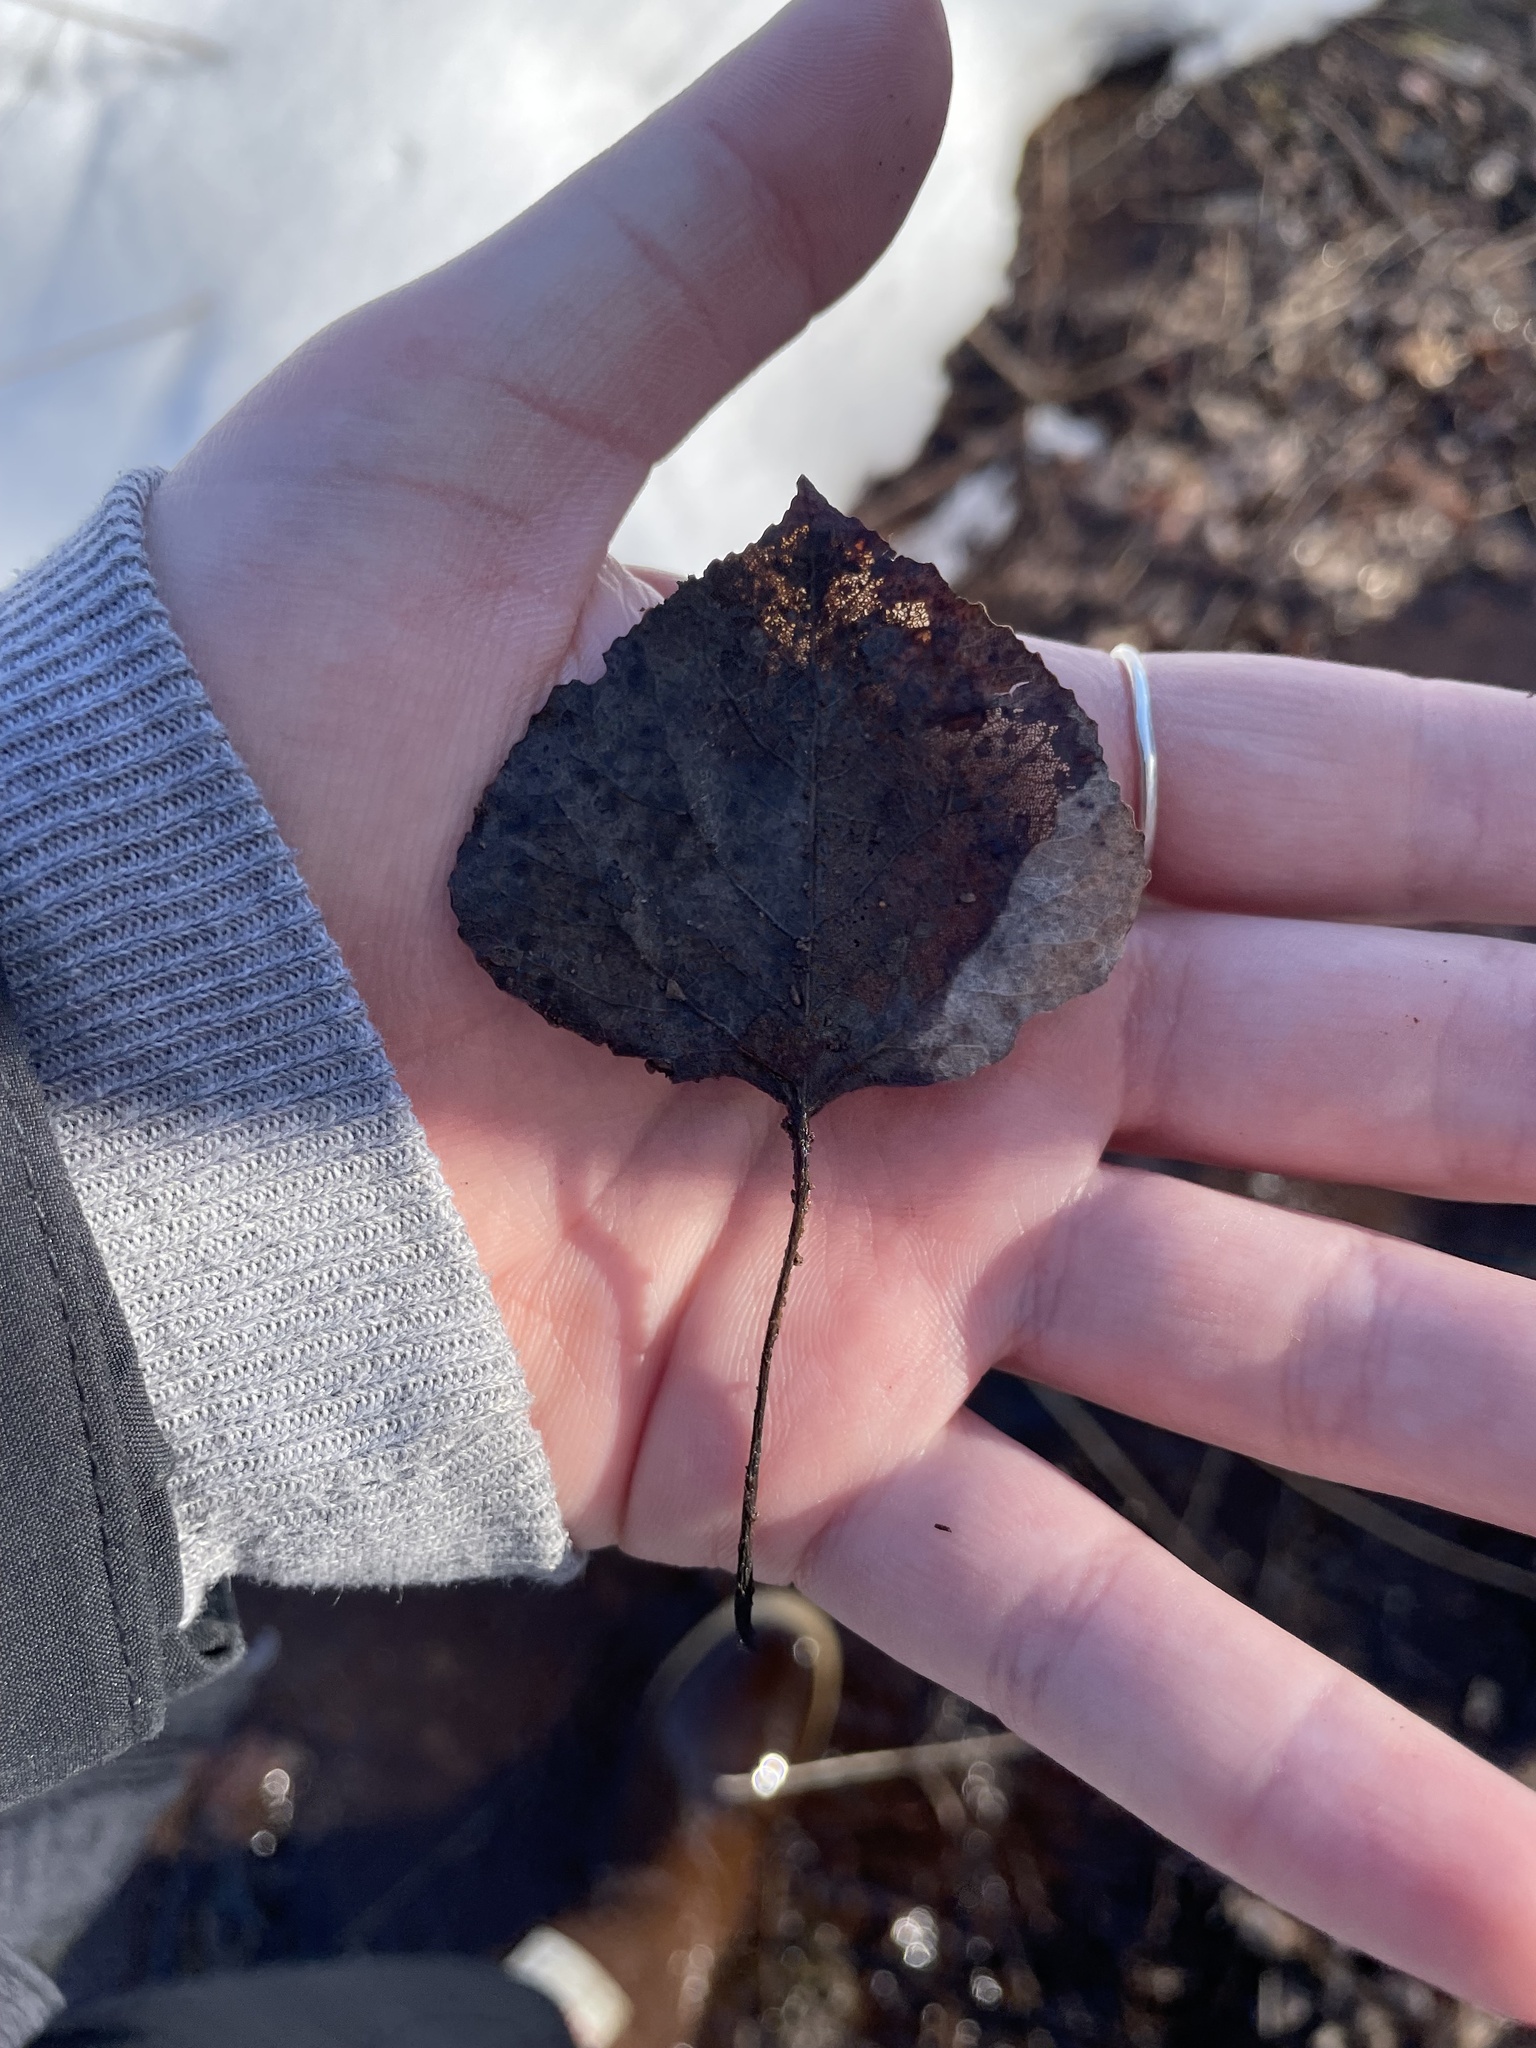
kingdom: Plantae
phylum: Tracheophyta
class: Magnoliopsida
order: Malpighiales
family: Salicaceae
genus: Populus
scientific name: Populus tremuloides
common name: Quaking aspen
